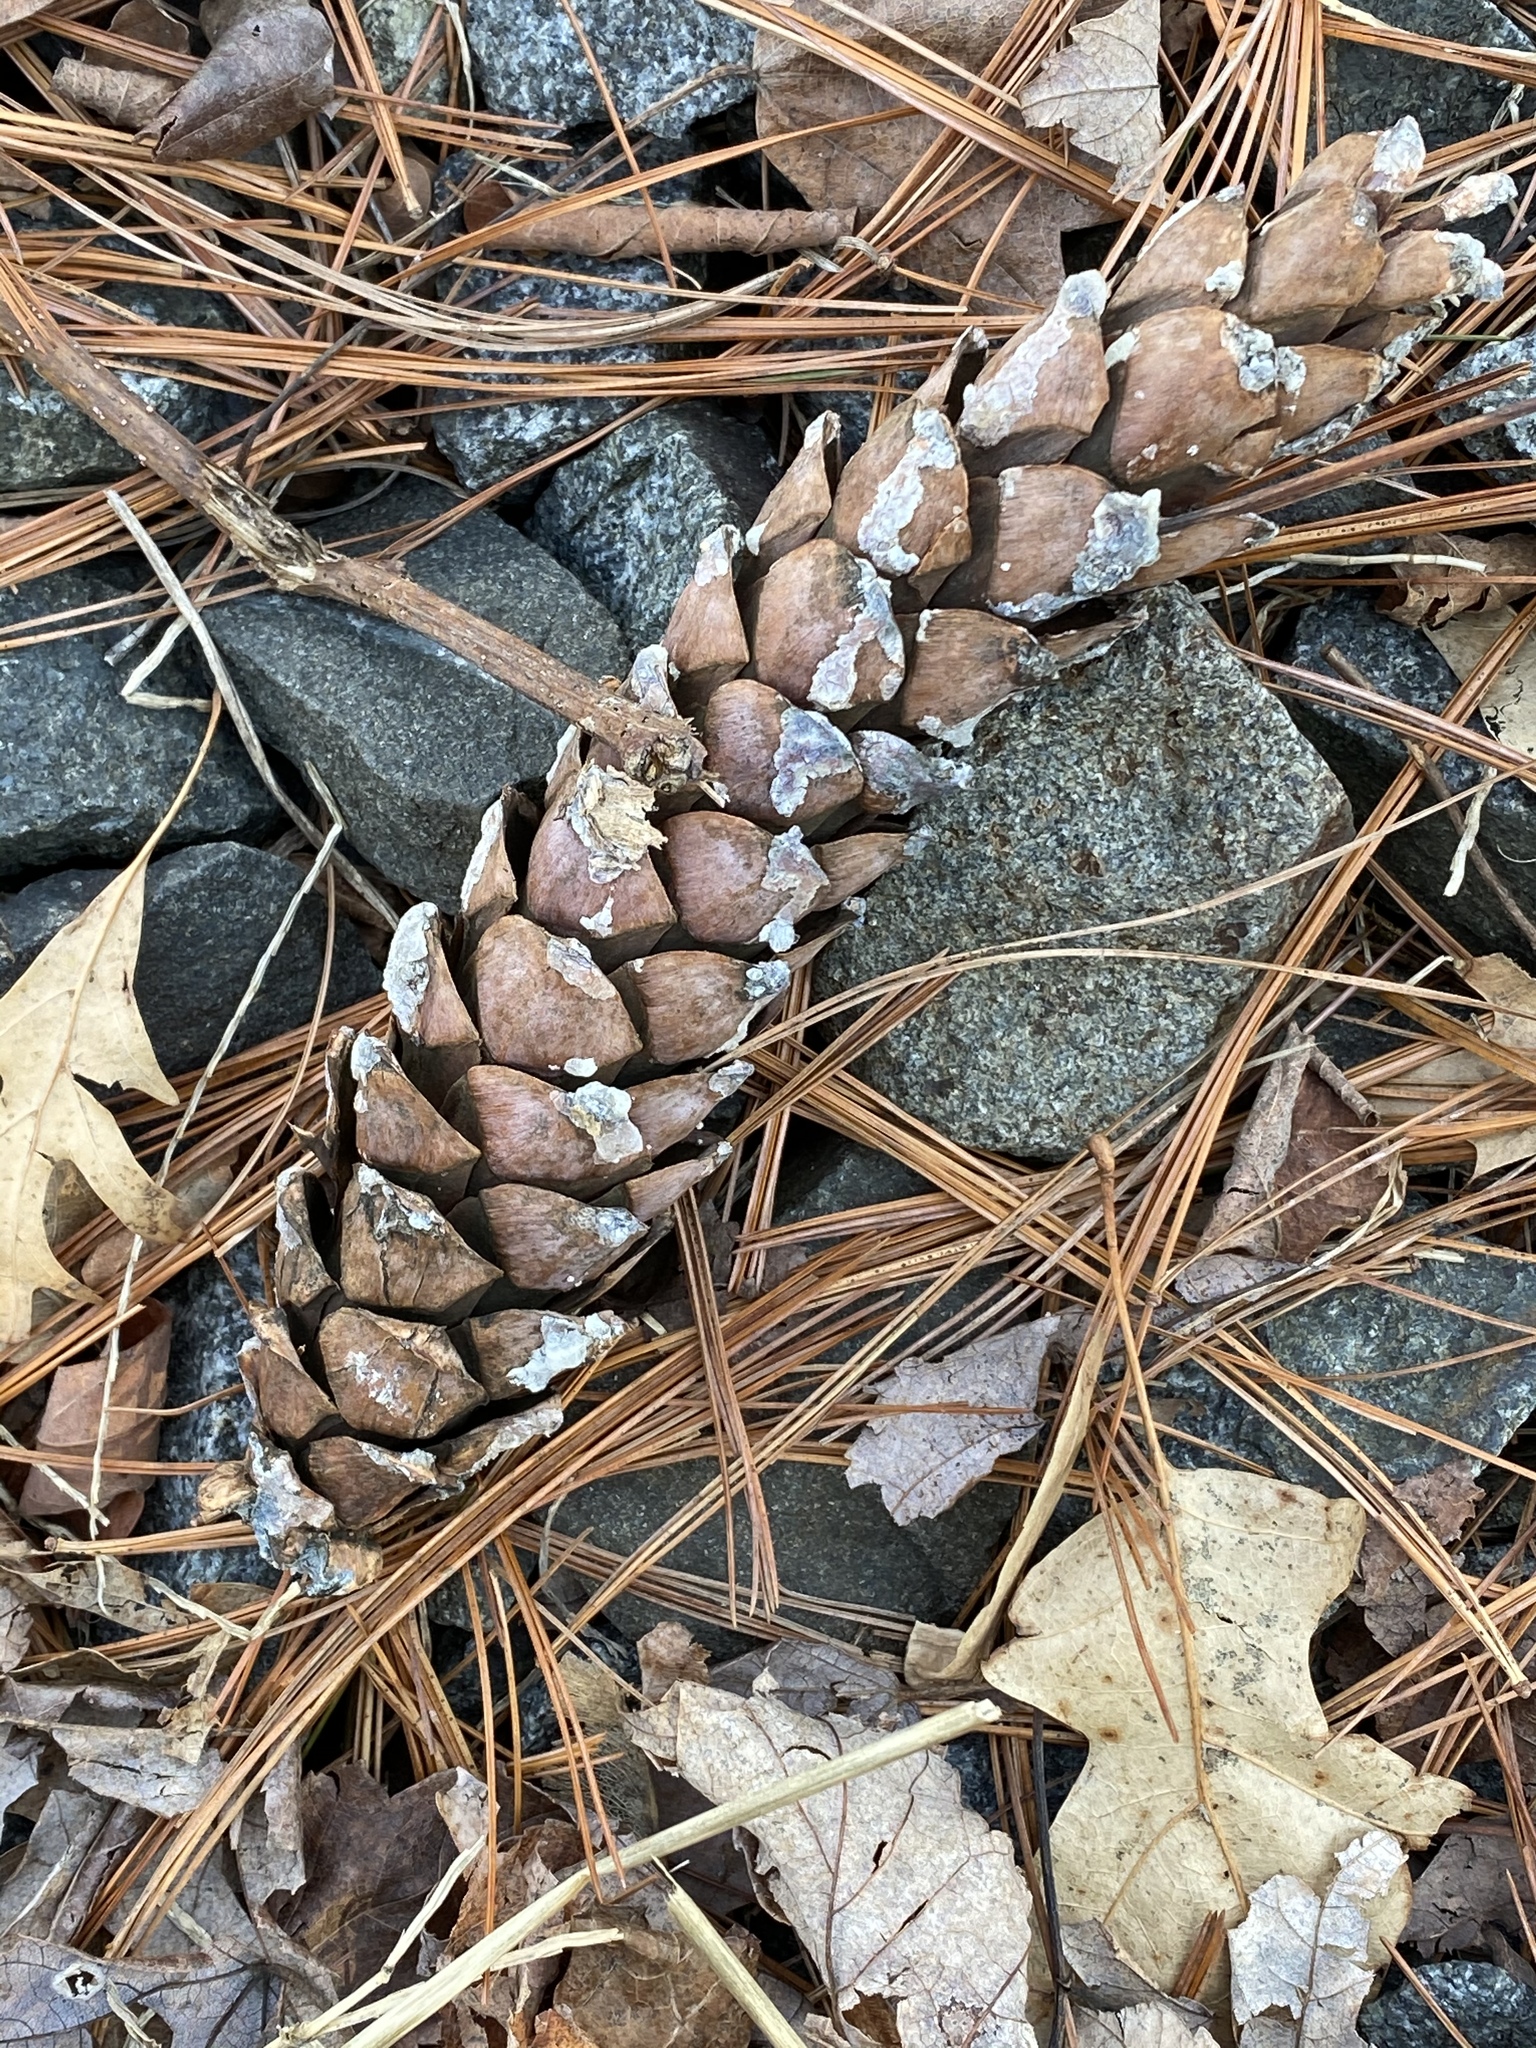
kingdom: Plantae
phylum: Tracheophyta
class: Pinopsida
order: Pinales
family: Pinaceae
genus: Pinus
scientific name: Pinus strobus
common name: Weymouth pine
